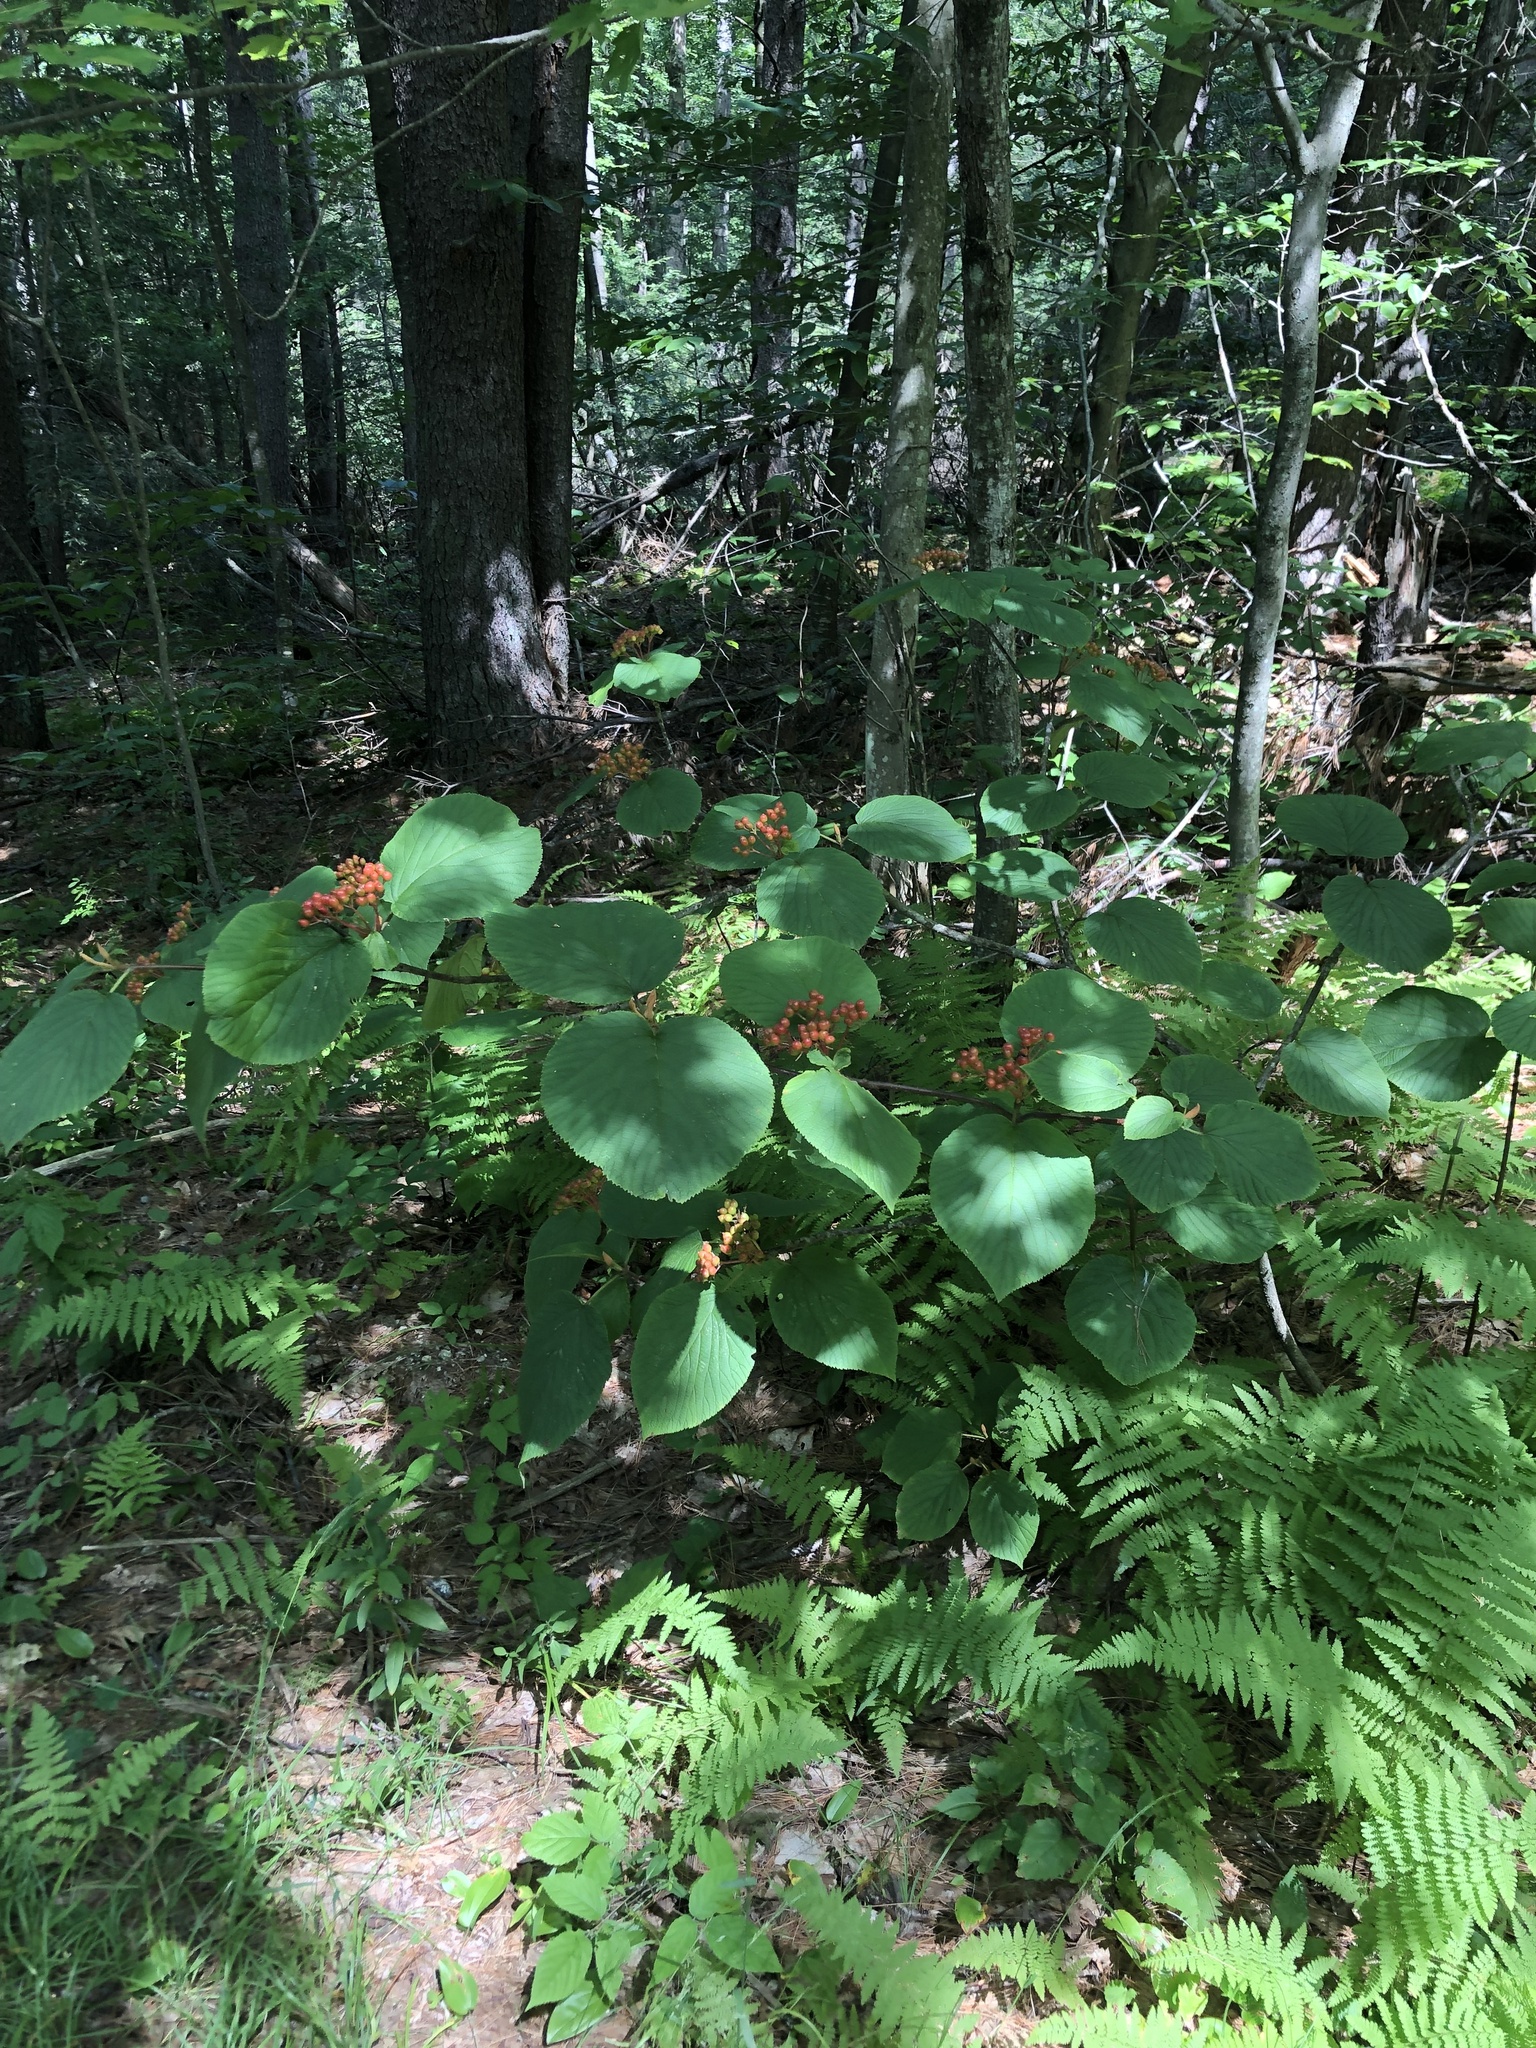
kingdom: Plantae
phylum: Tracheophyta
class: Magnoliopsida
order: Dipsacales
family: Viburnaceae
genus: Viburnum
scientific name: Viburnum lantanoides
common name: Hobblebush
